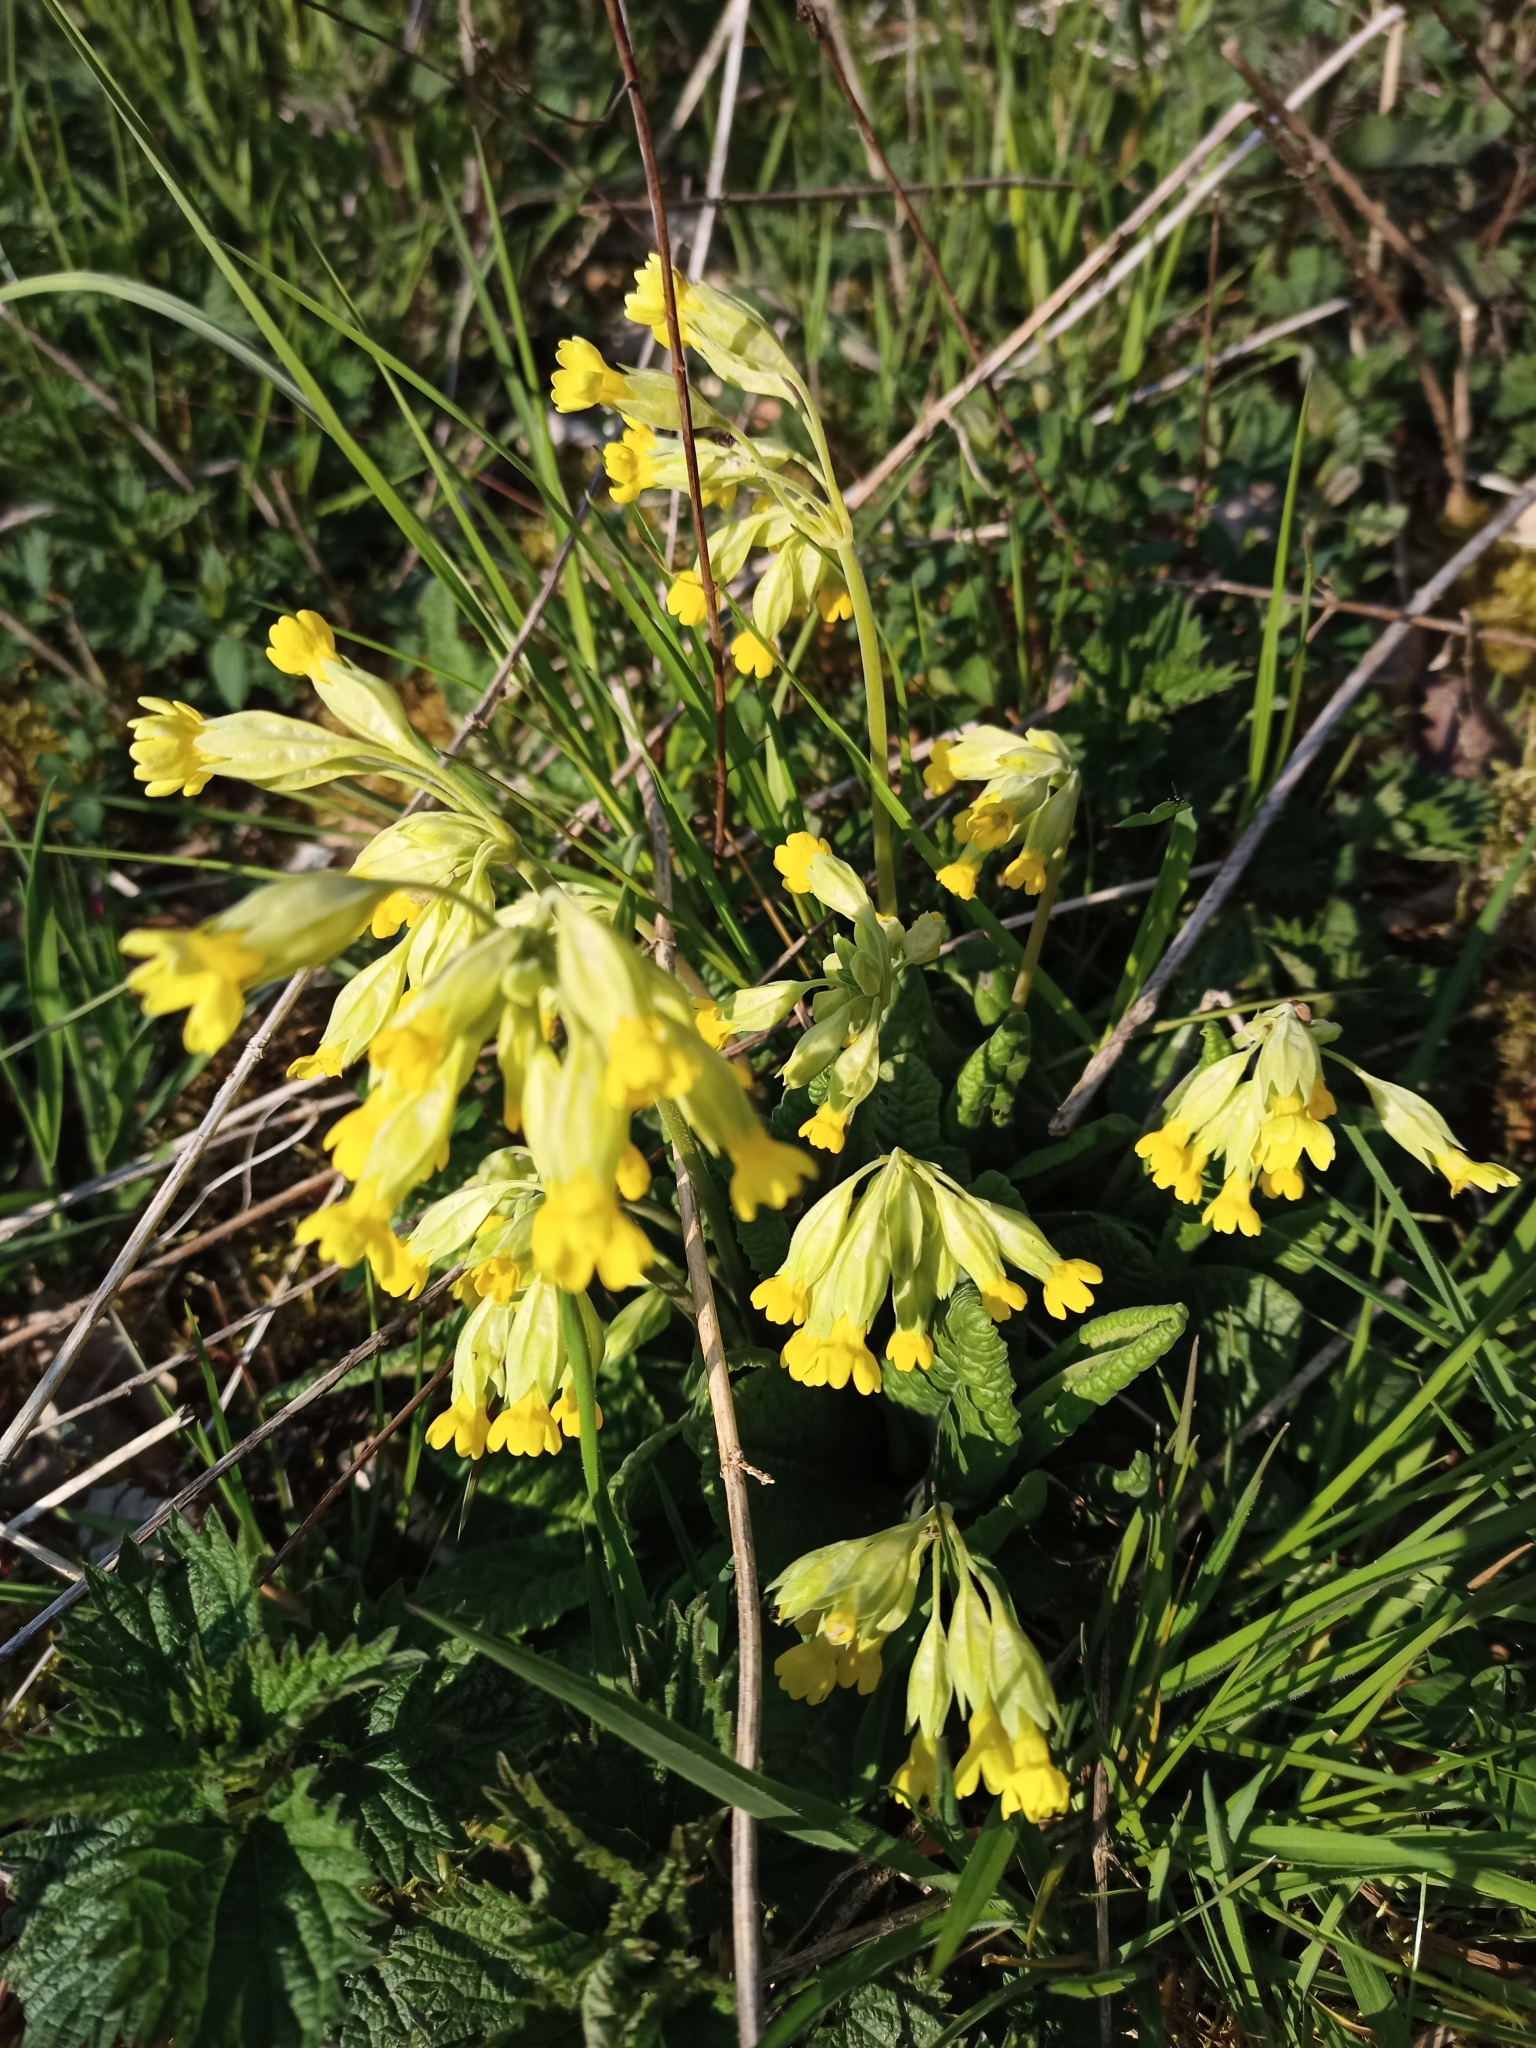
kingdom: Plantae
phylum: Tracheophyta
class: Magnoliopsida
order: Ericales
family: Primulaceae
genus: Primula
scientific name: Primula veris
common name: Cowslip
